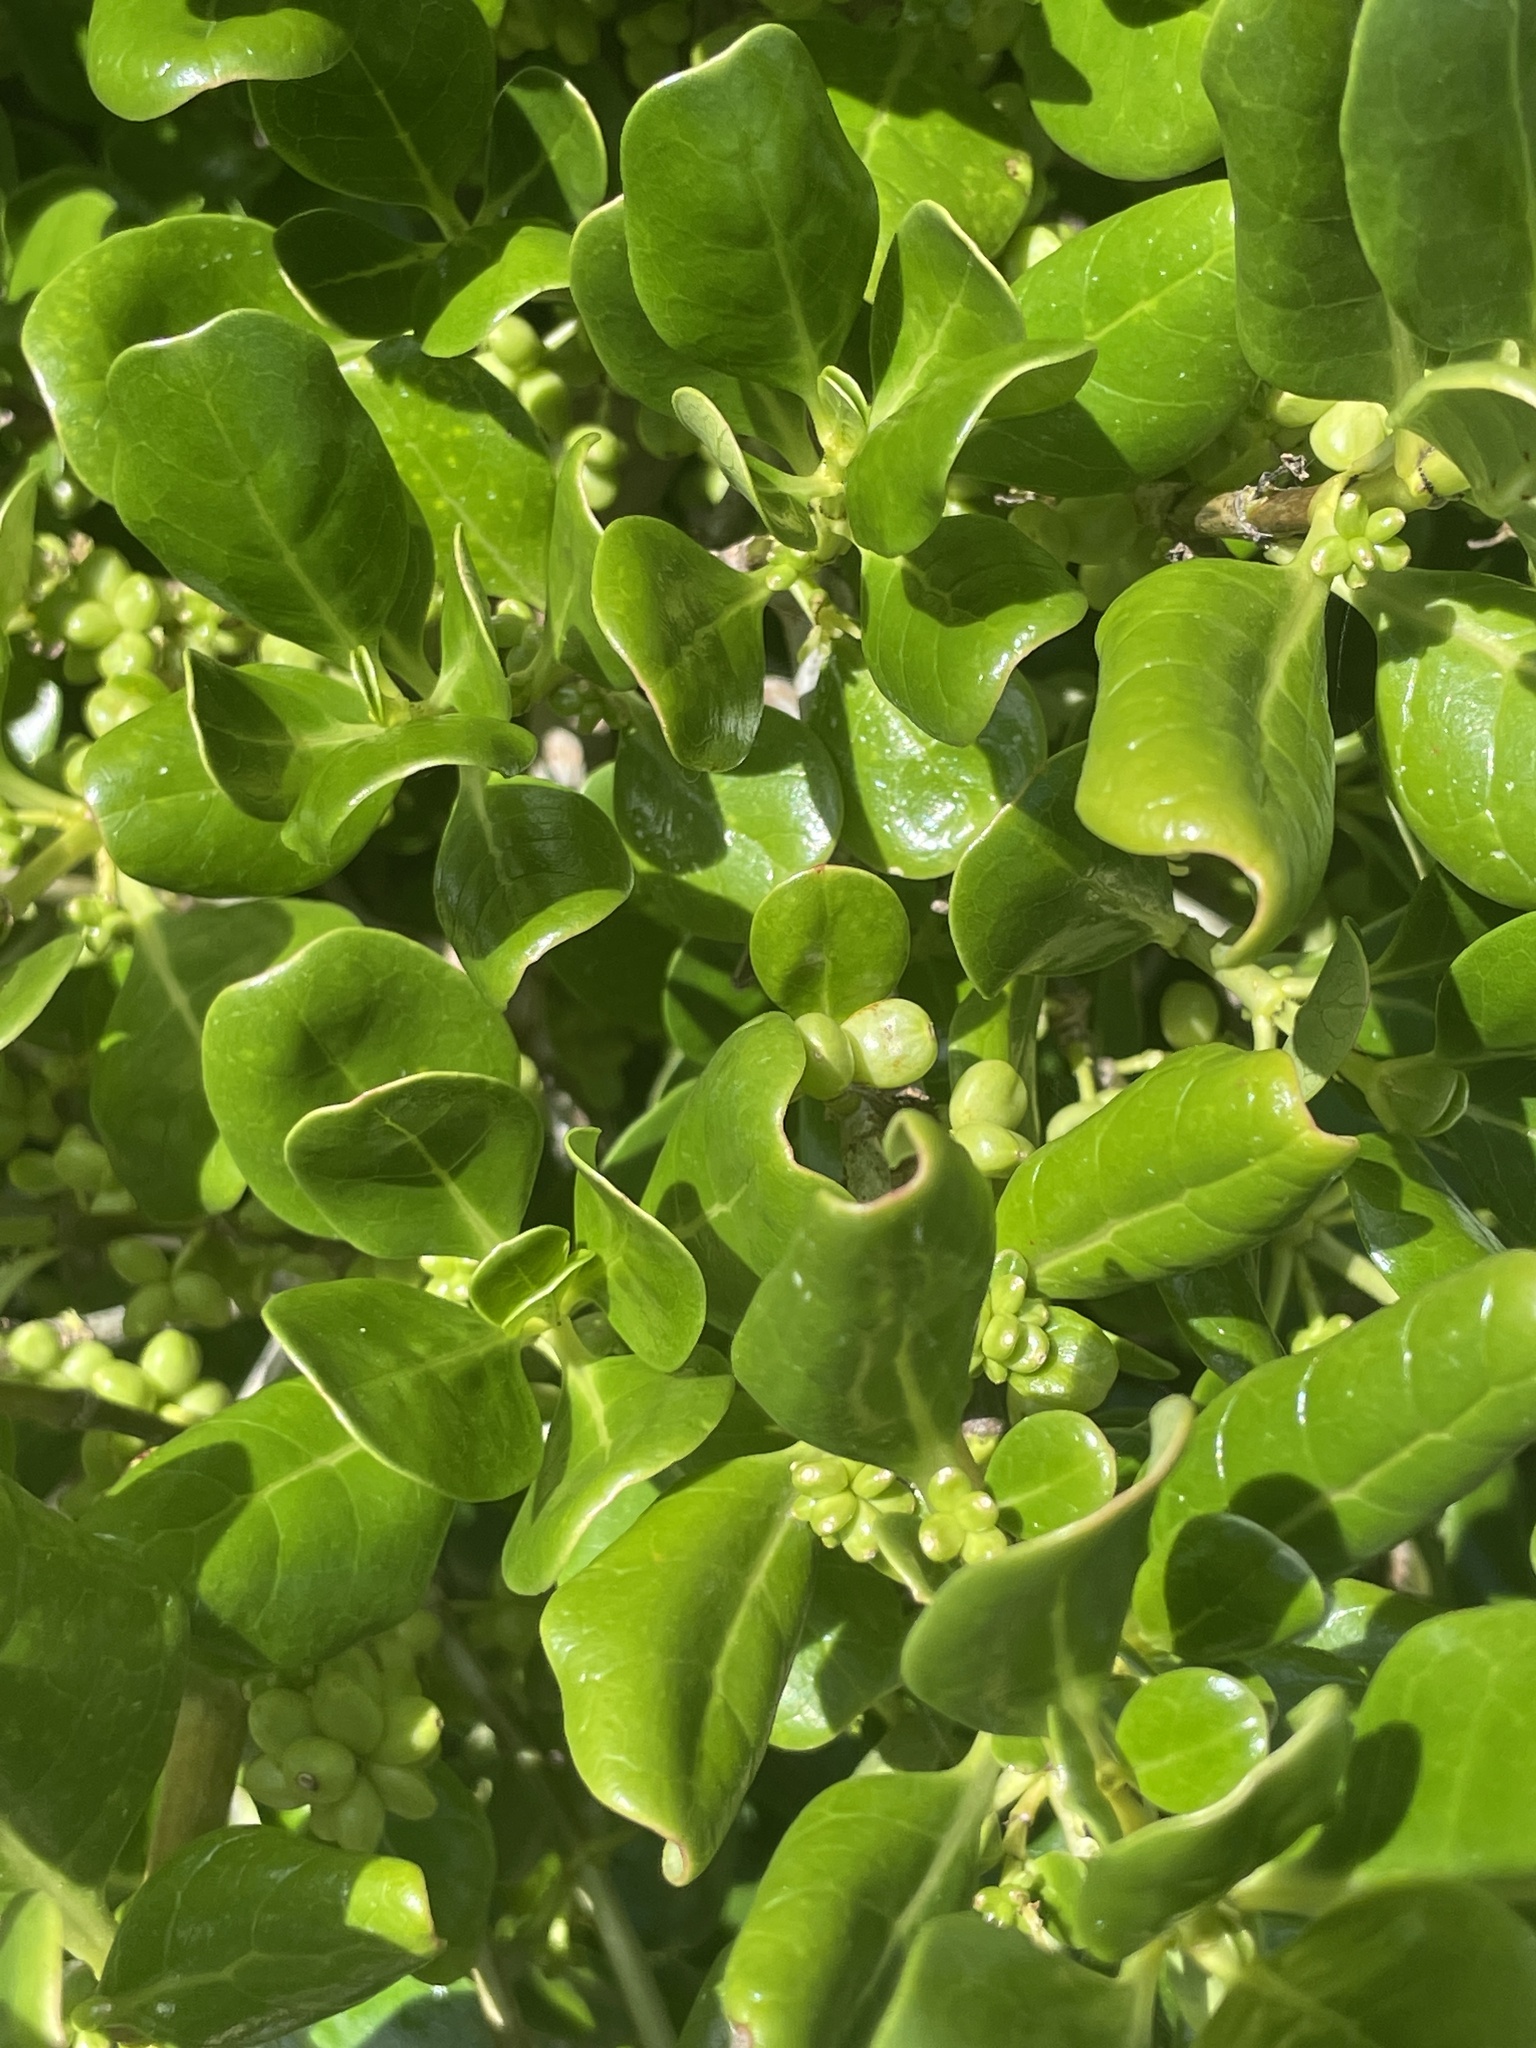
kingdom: Plantae
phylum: Tracheophyta
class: Magnoliopsida
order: Gentianales
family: Rubiaceae
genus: Coprosma
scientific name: Coprosma repens
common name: Tree bedstraw
